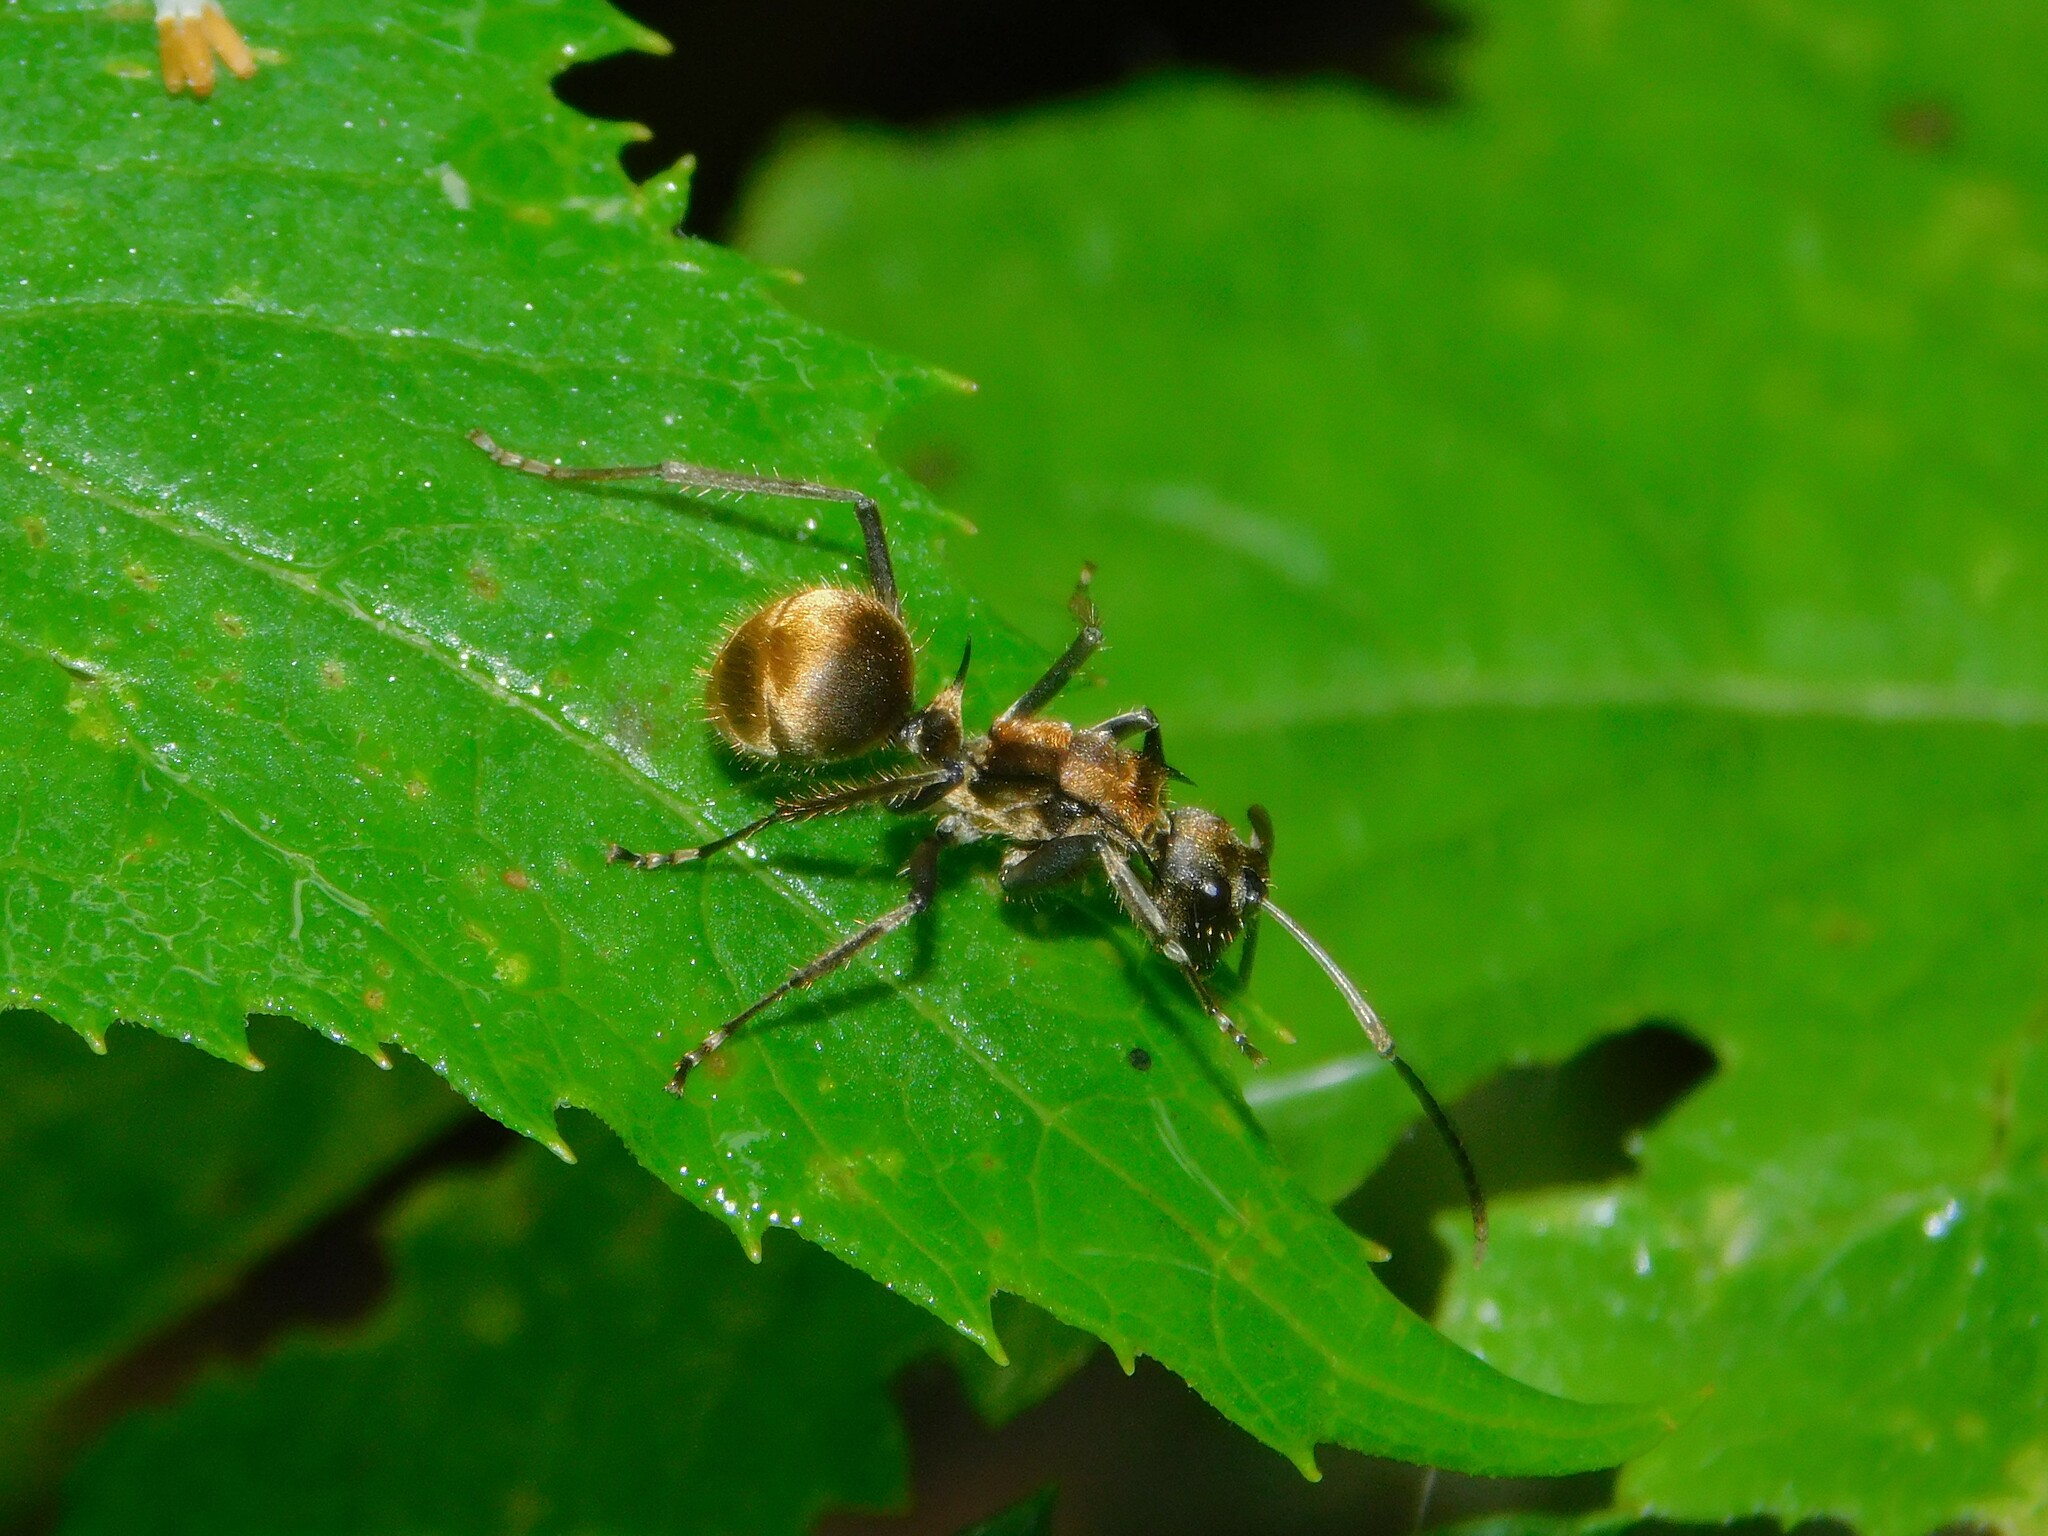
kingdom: Animalia
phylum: Arthropoda
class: Insecta
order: Hymenoptera
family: Formicidae
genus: Polyrhachis
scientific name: Polyrhachis
